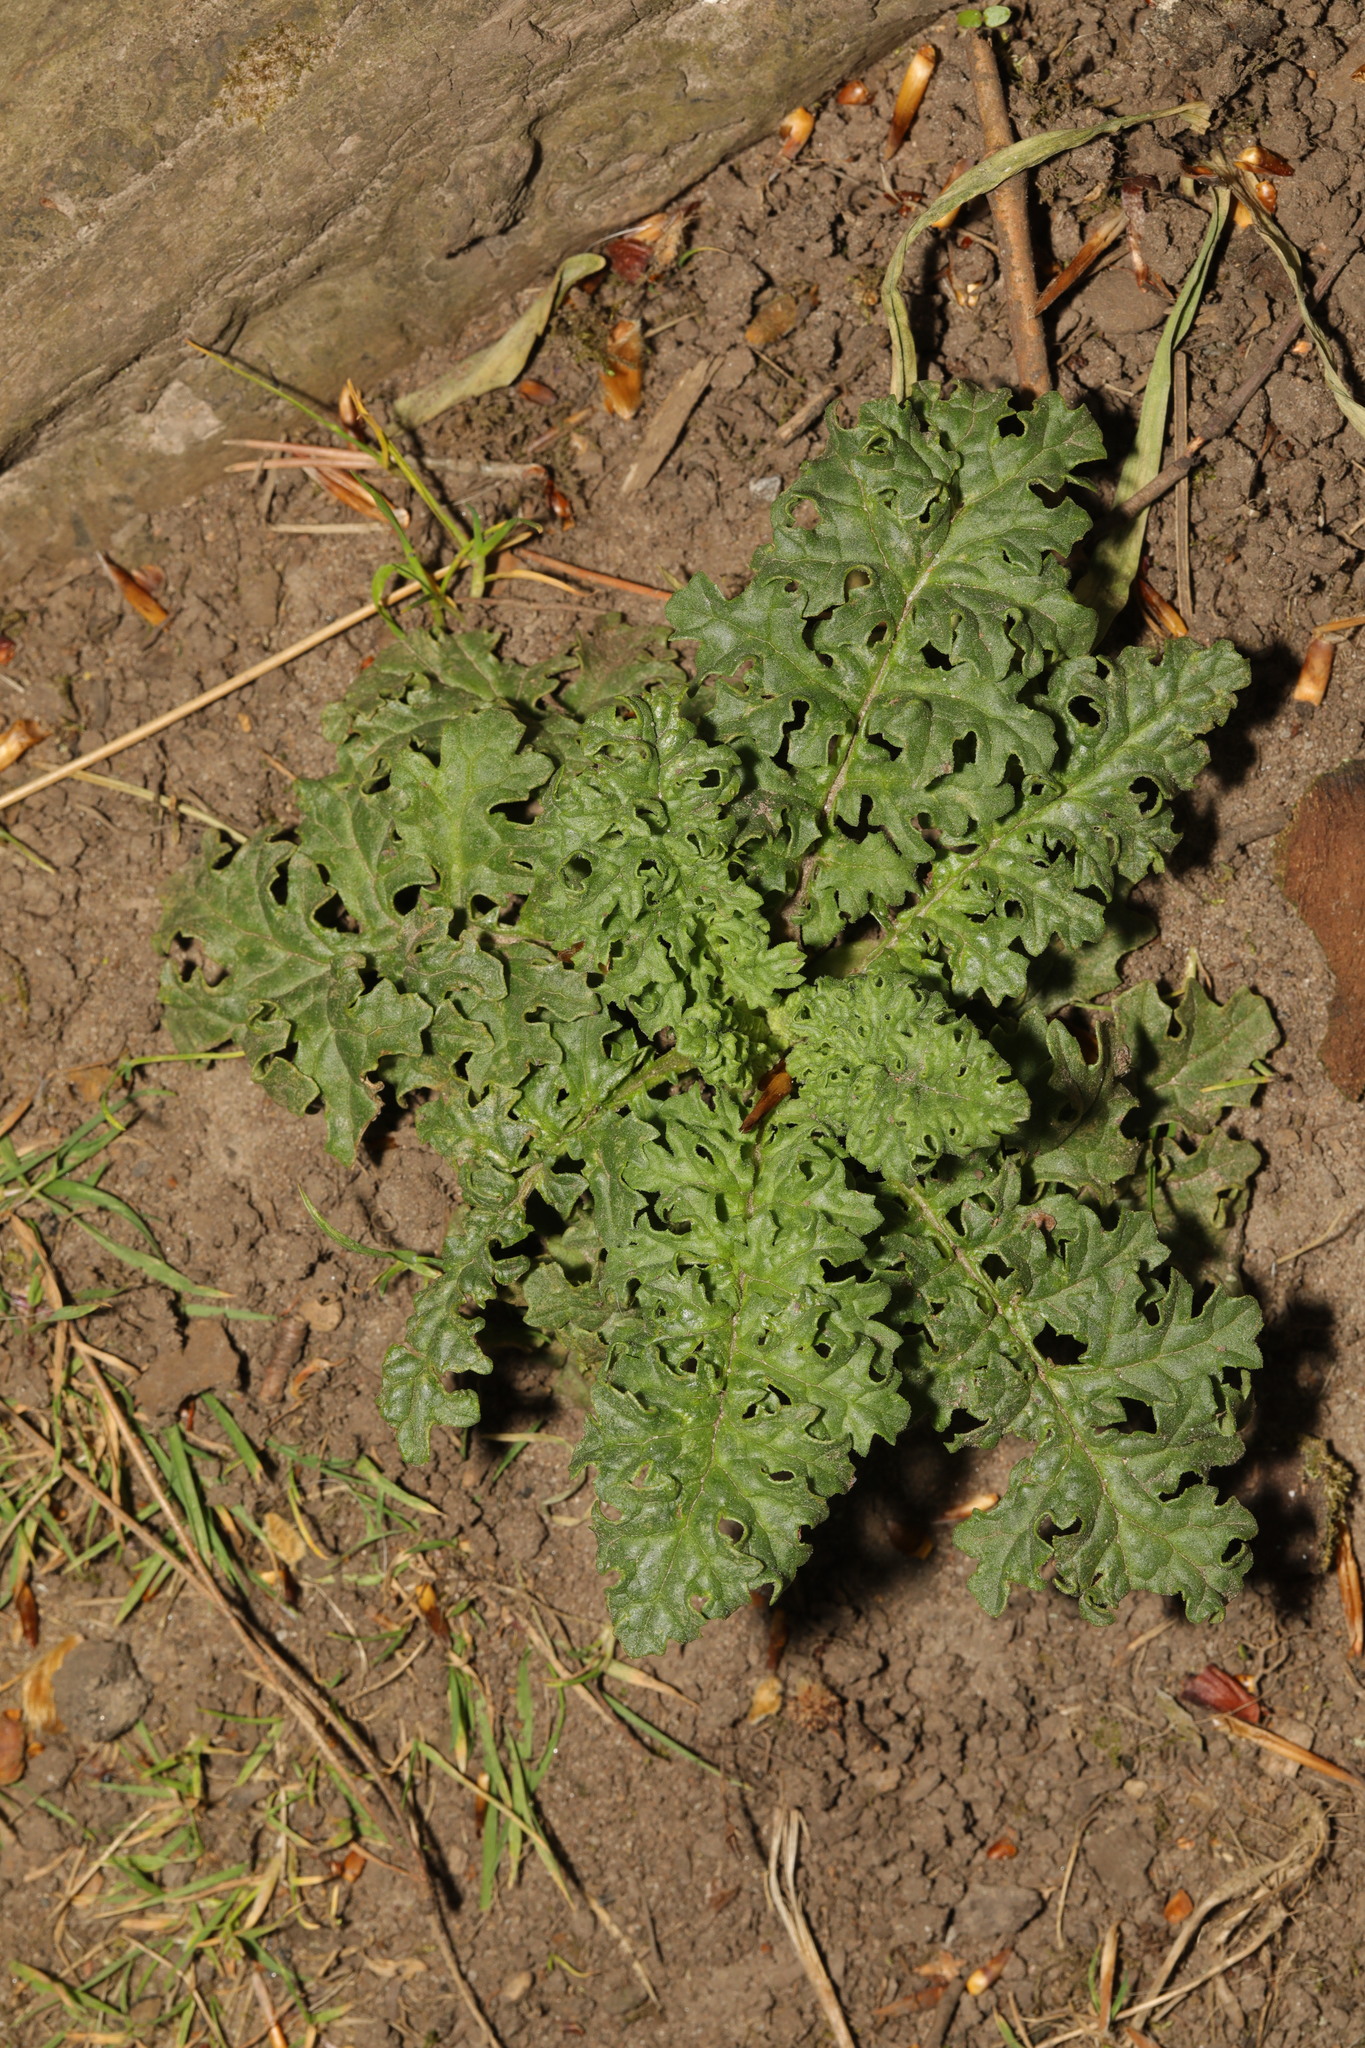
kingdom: Plantae
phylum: Tracheophyta
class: Magnoliopsida
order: Asterales
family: Asteraceae
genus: Jacobaea
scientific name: Jacobaea vulgaris
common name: Stinking willie
